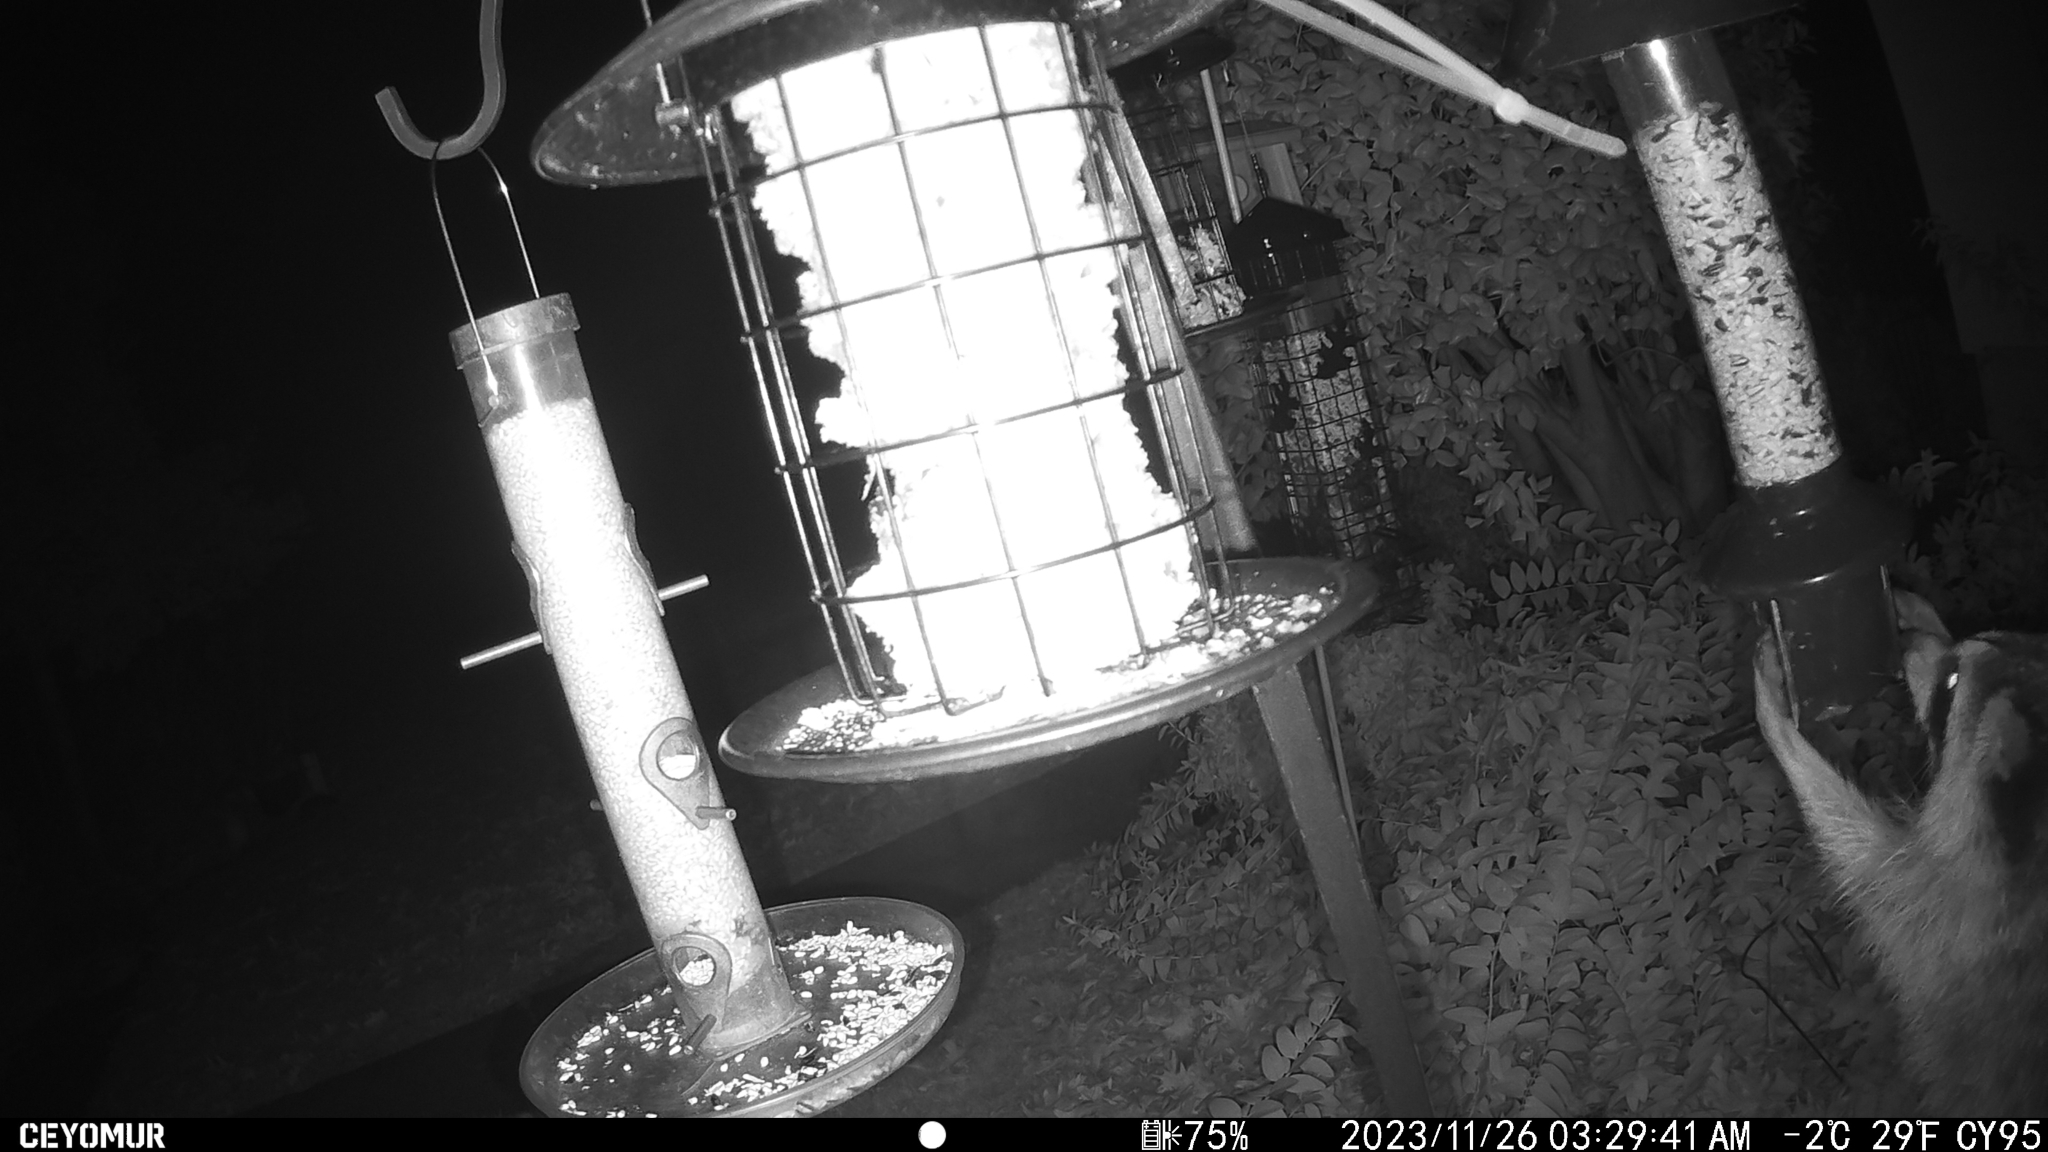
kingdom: Animalia
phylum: Chordata
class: Mammalia
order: Carnivora
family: Procyonidae
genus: Procyon
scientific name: Procyon lotor
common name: Raccoon
